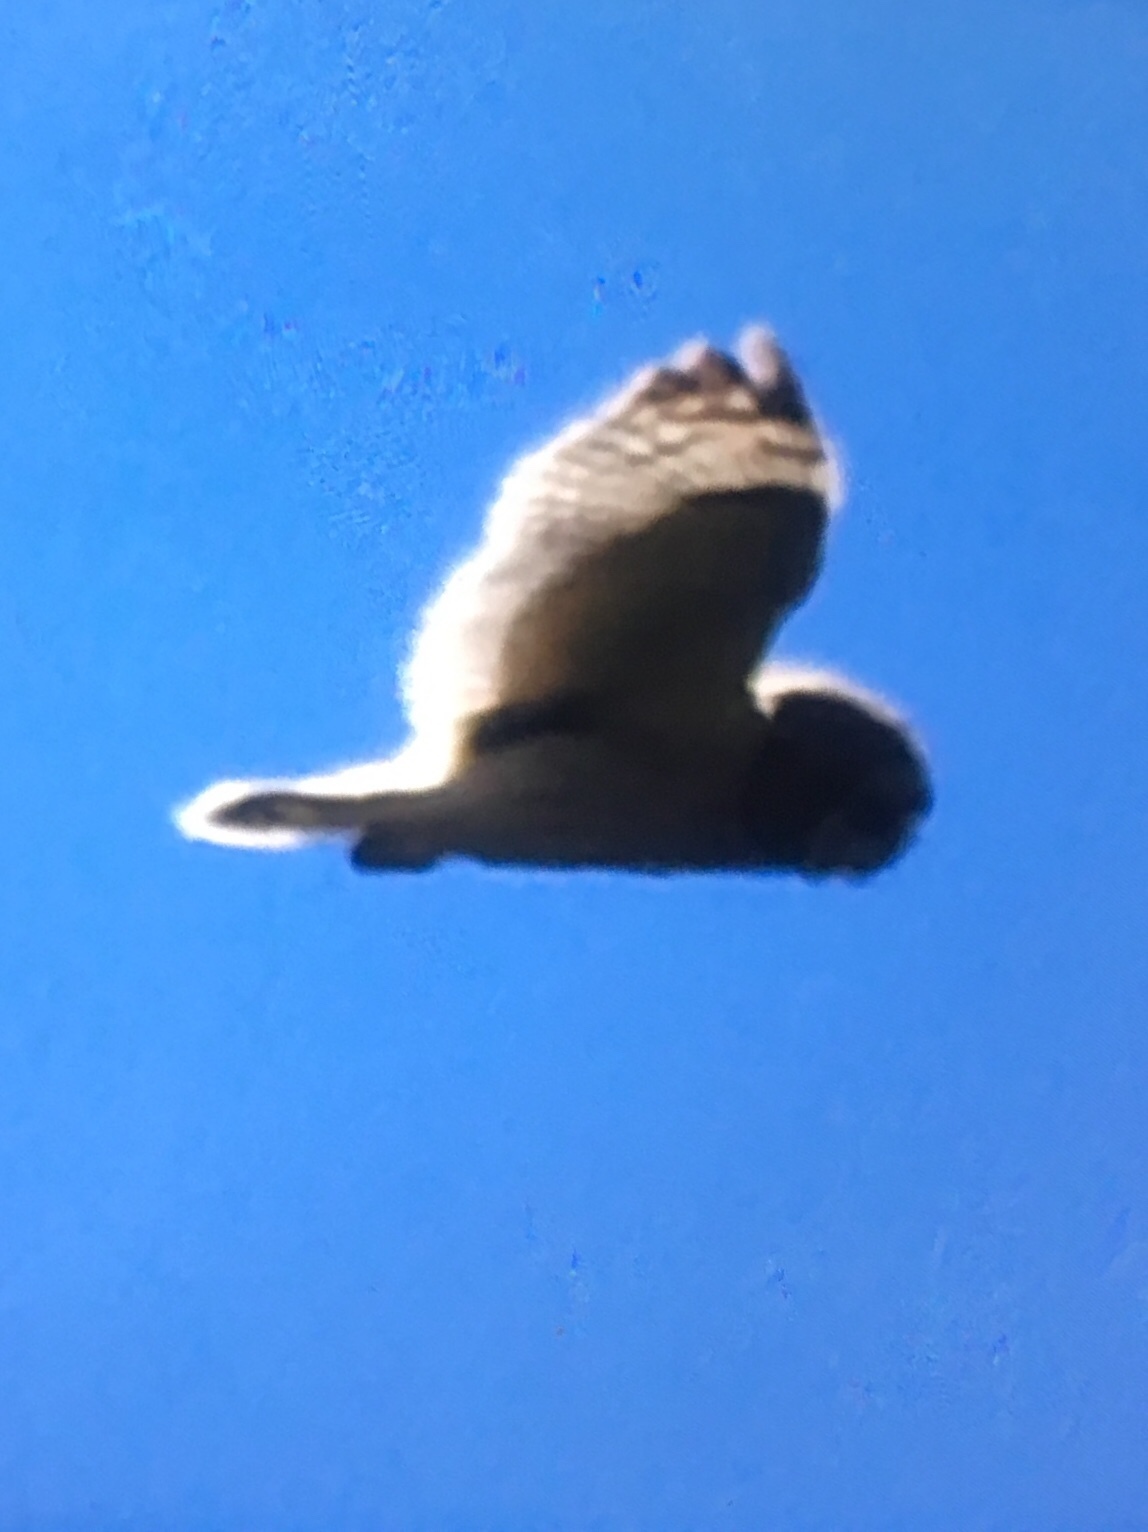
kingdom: Animalia
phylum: Chordata
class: Aves
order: Strigiformes
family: Strigidae
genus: Asio
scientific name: Asio flammeus
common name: Short-eared owl
